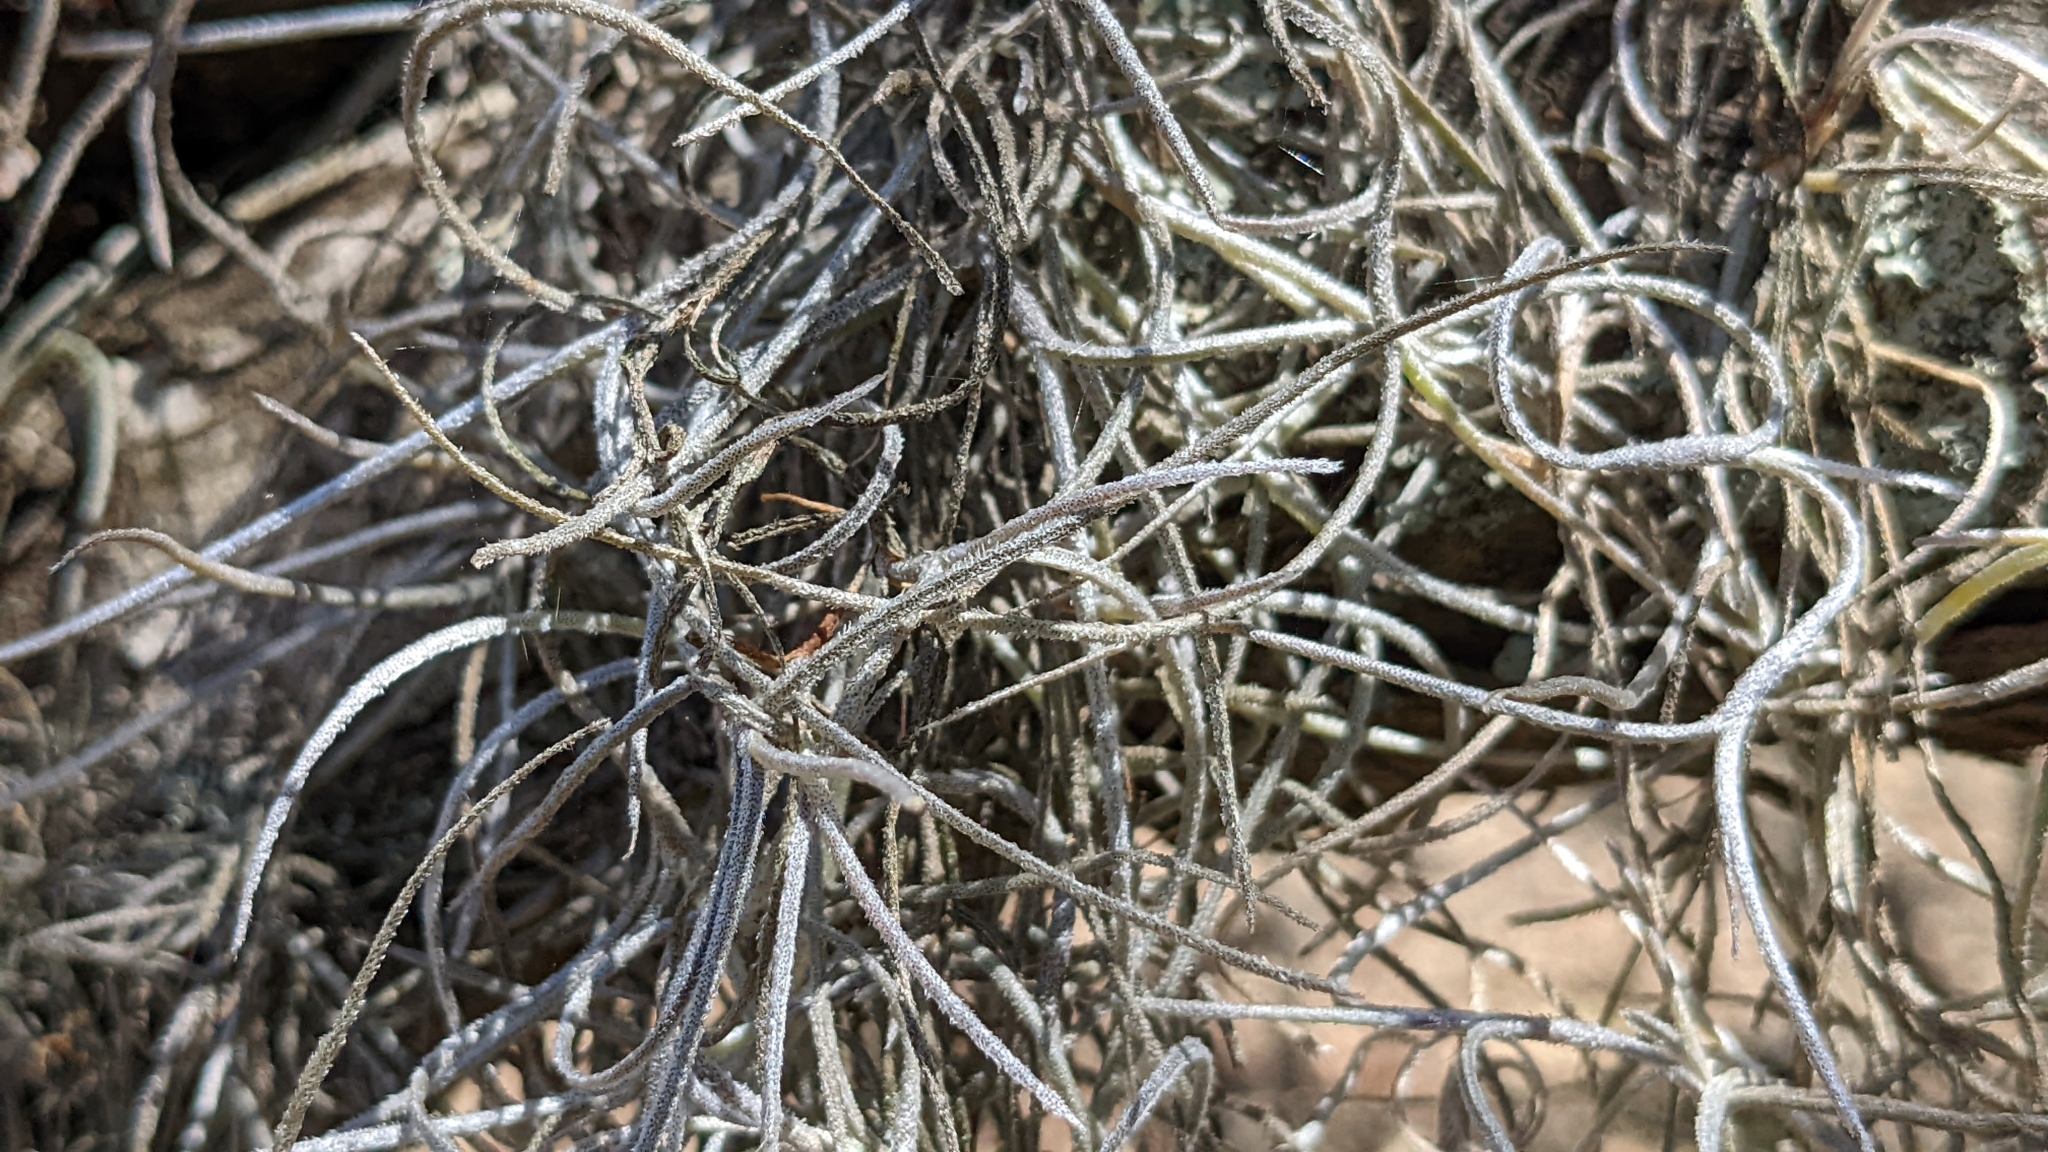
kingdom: Plantae
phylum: Tracheophyta
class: Liliopsida
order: Poales
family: Bromeliaceae
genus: Tillandsia
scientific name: Tillandsia usneoides
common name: Spanish moss
